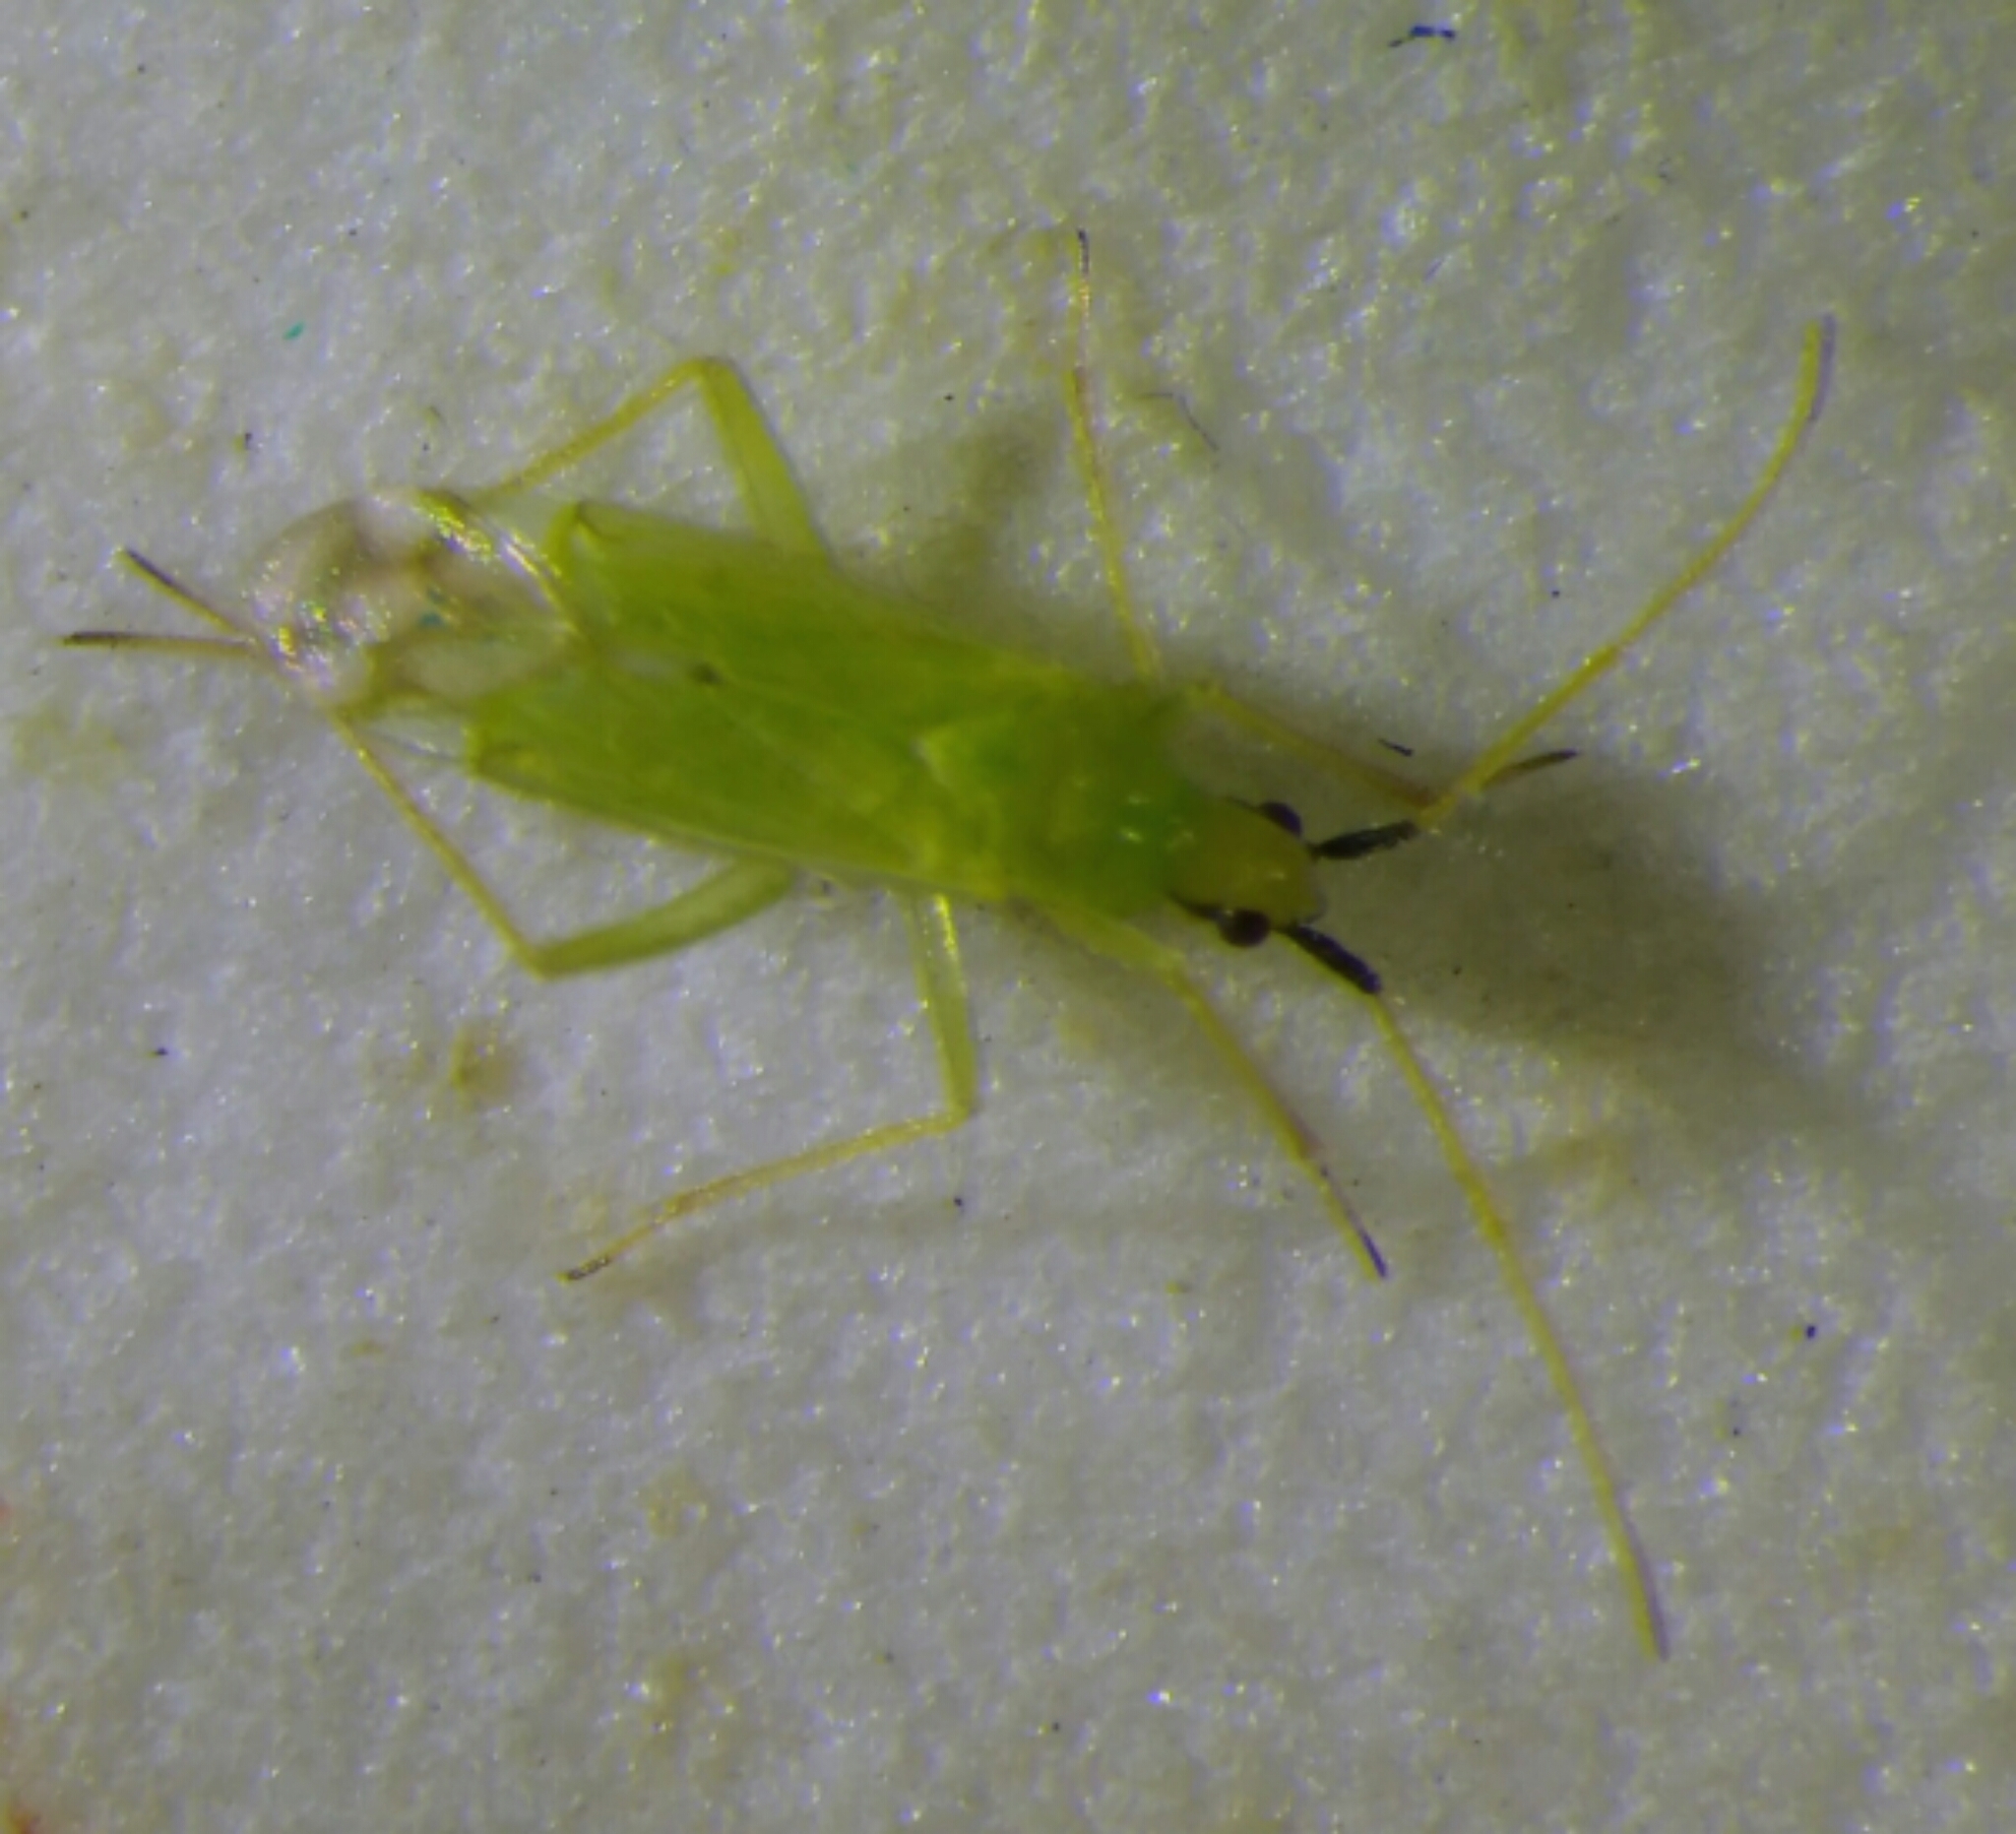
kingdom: Animalia
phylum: Arthropoda
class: Insecta
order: Hemiptera
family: Miridae
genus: Macrolophus
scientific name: Macrolophus
